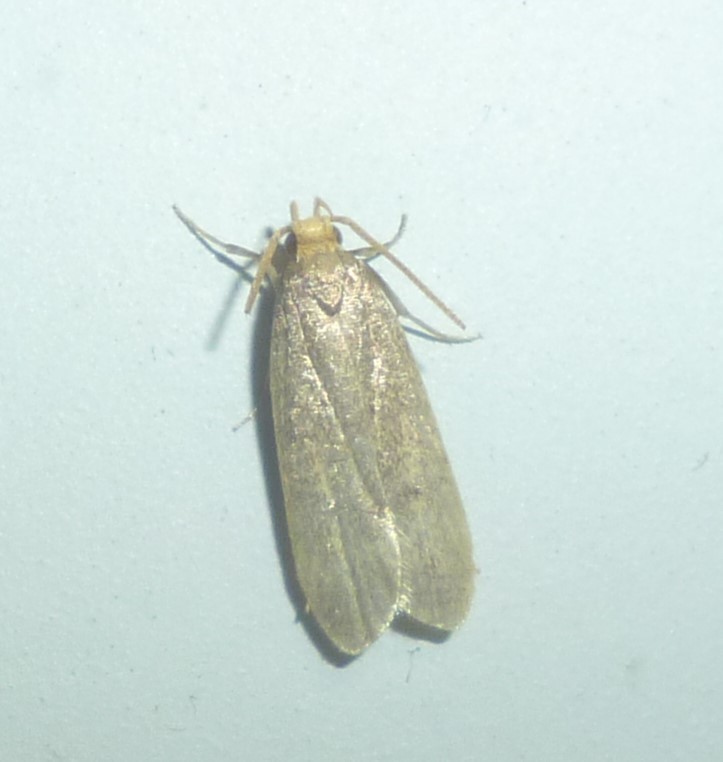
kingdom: Animalia
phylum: Arthropoda
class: Insecta
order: Lepidoptera
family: Autostichidae
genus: Glyphidocera
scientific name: Glyphidocera lithodoxa
